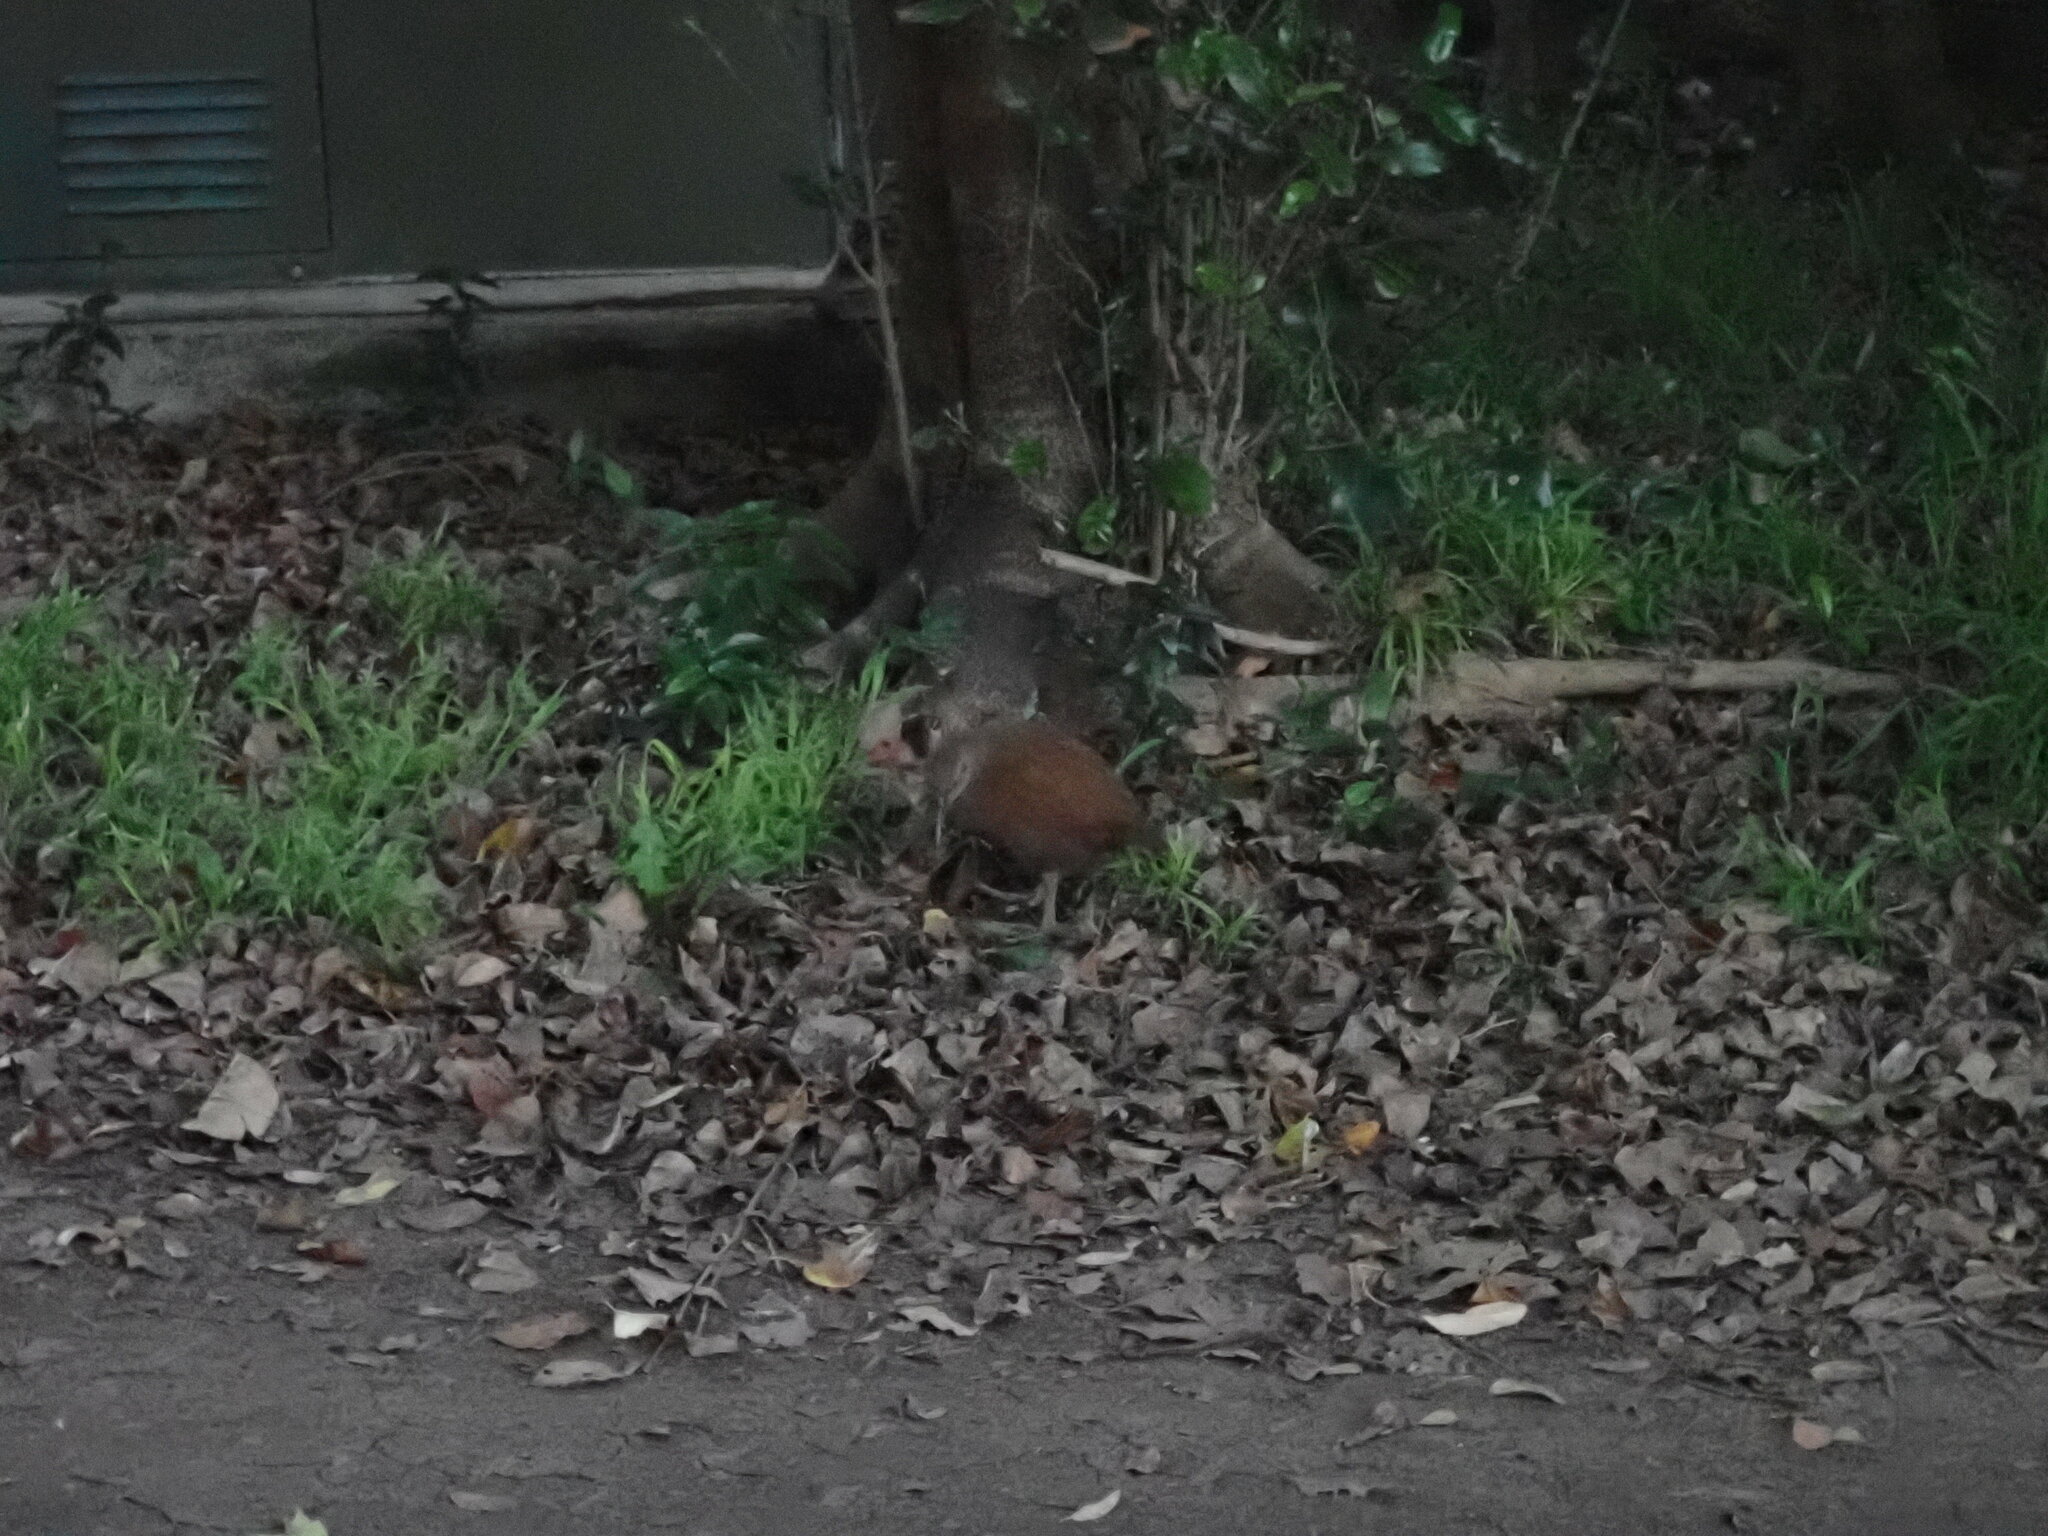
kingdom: Animalia
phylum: Chordata
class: Aves
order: Gruiformes
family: Rallidae
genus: Gallirallus
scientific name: Gallirallus sylvestris
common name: Lord howe woodhen
